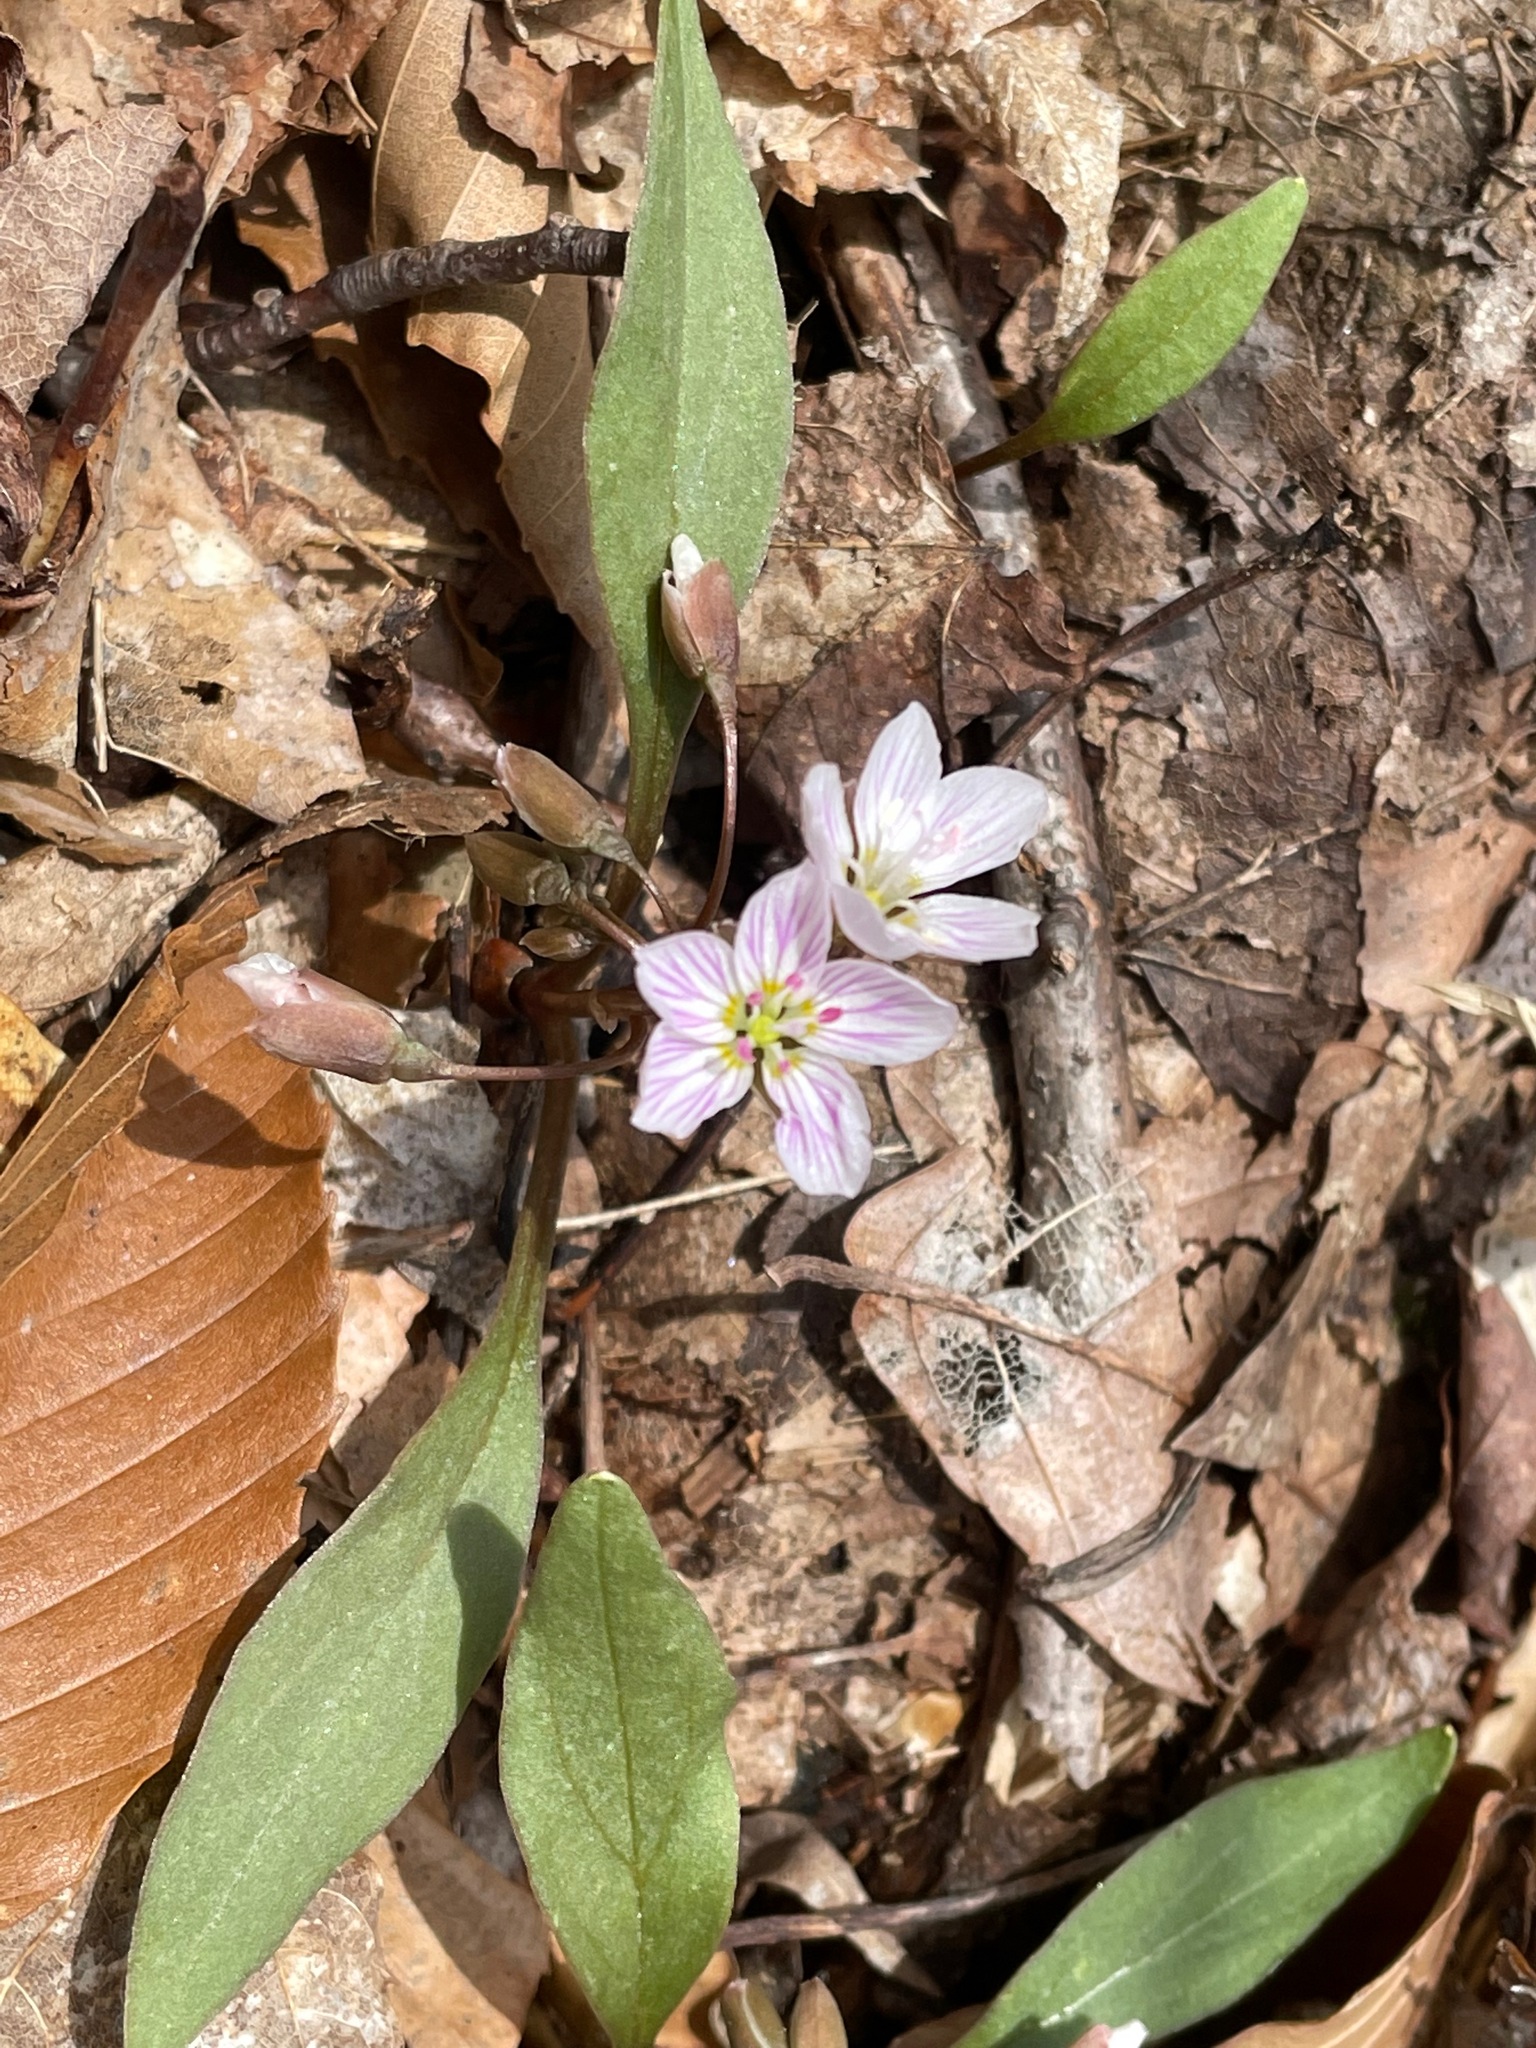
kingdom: Plantae
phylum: Tracheophyta
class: Magnoliopsida
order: Caryophyllales
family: Montiaceae
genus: Claytonia
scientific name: Claytonia caroliniana
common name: Carolina spring beauty
